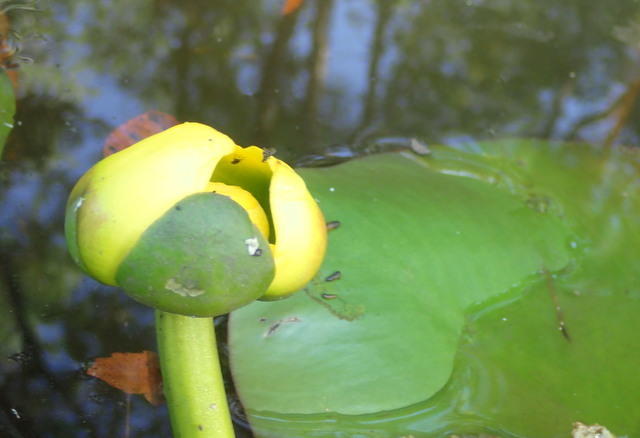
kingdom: Plantae
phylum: Tracheophyta
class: Magnoliopsida
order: Nymphaeales
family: Nymphaeaceae
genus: Nuphar
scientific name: Nuphar advena
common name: Spatter-dock
